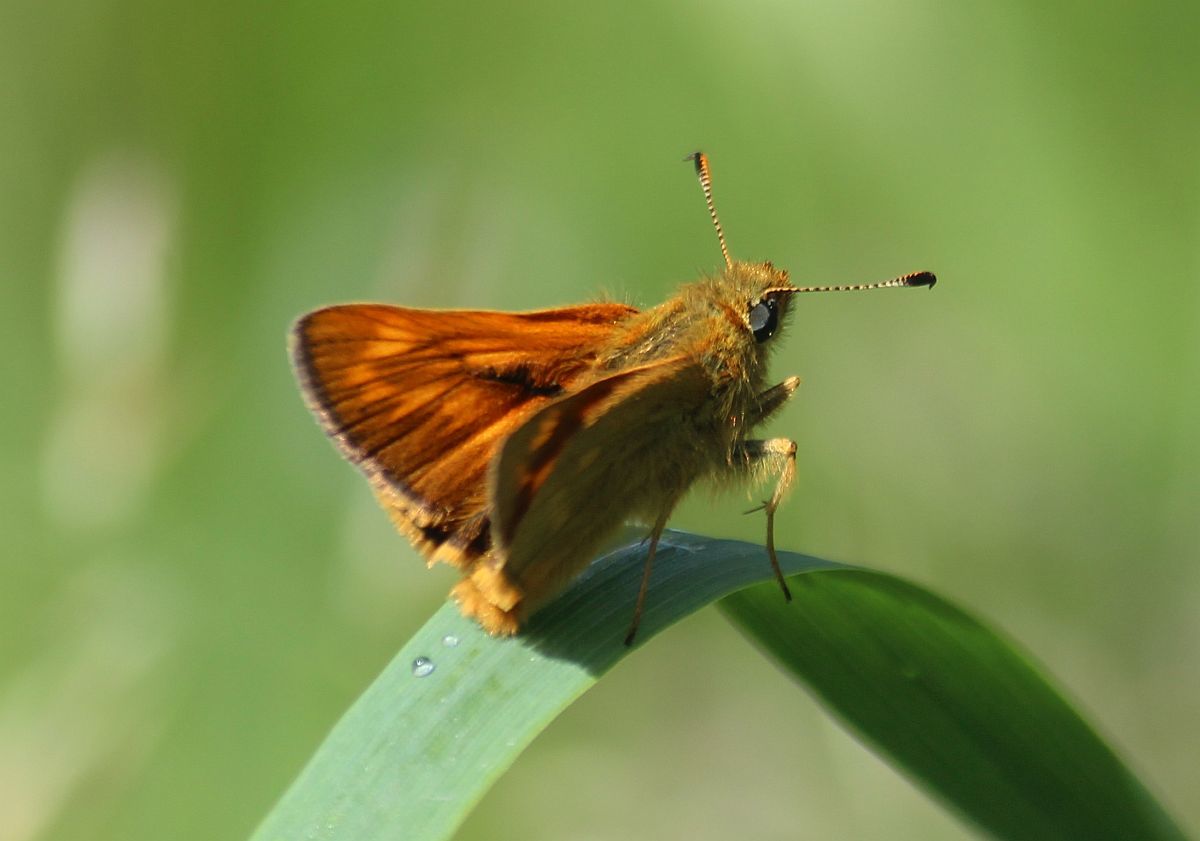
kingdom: Animalia
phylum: Arthropoda
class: Insecta
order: Lepidoptera
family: Hesperiidae
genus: Ochlodes
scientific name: Ochlodes venata
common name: Large skipper
